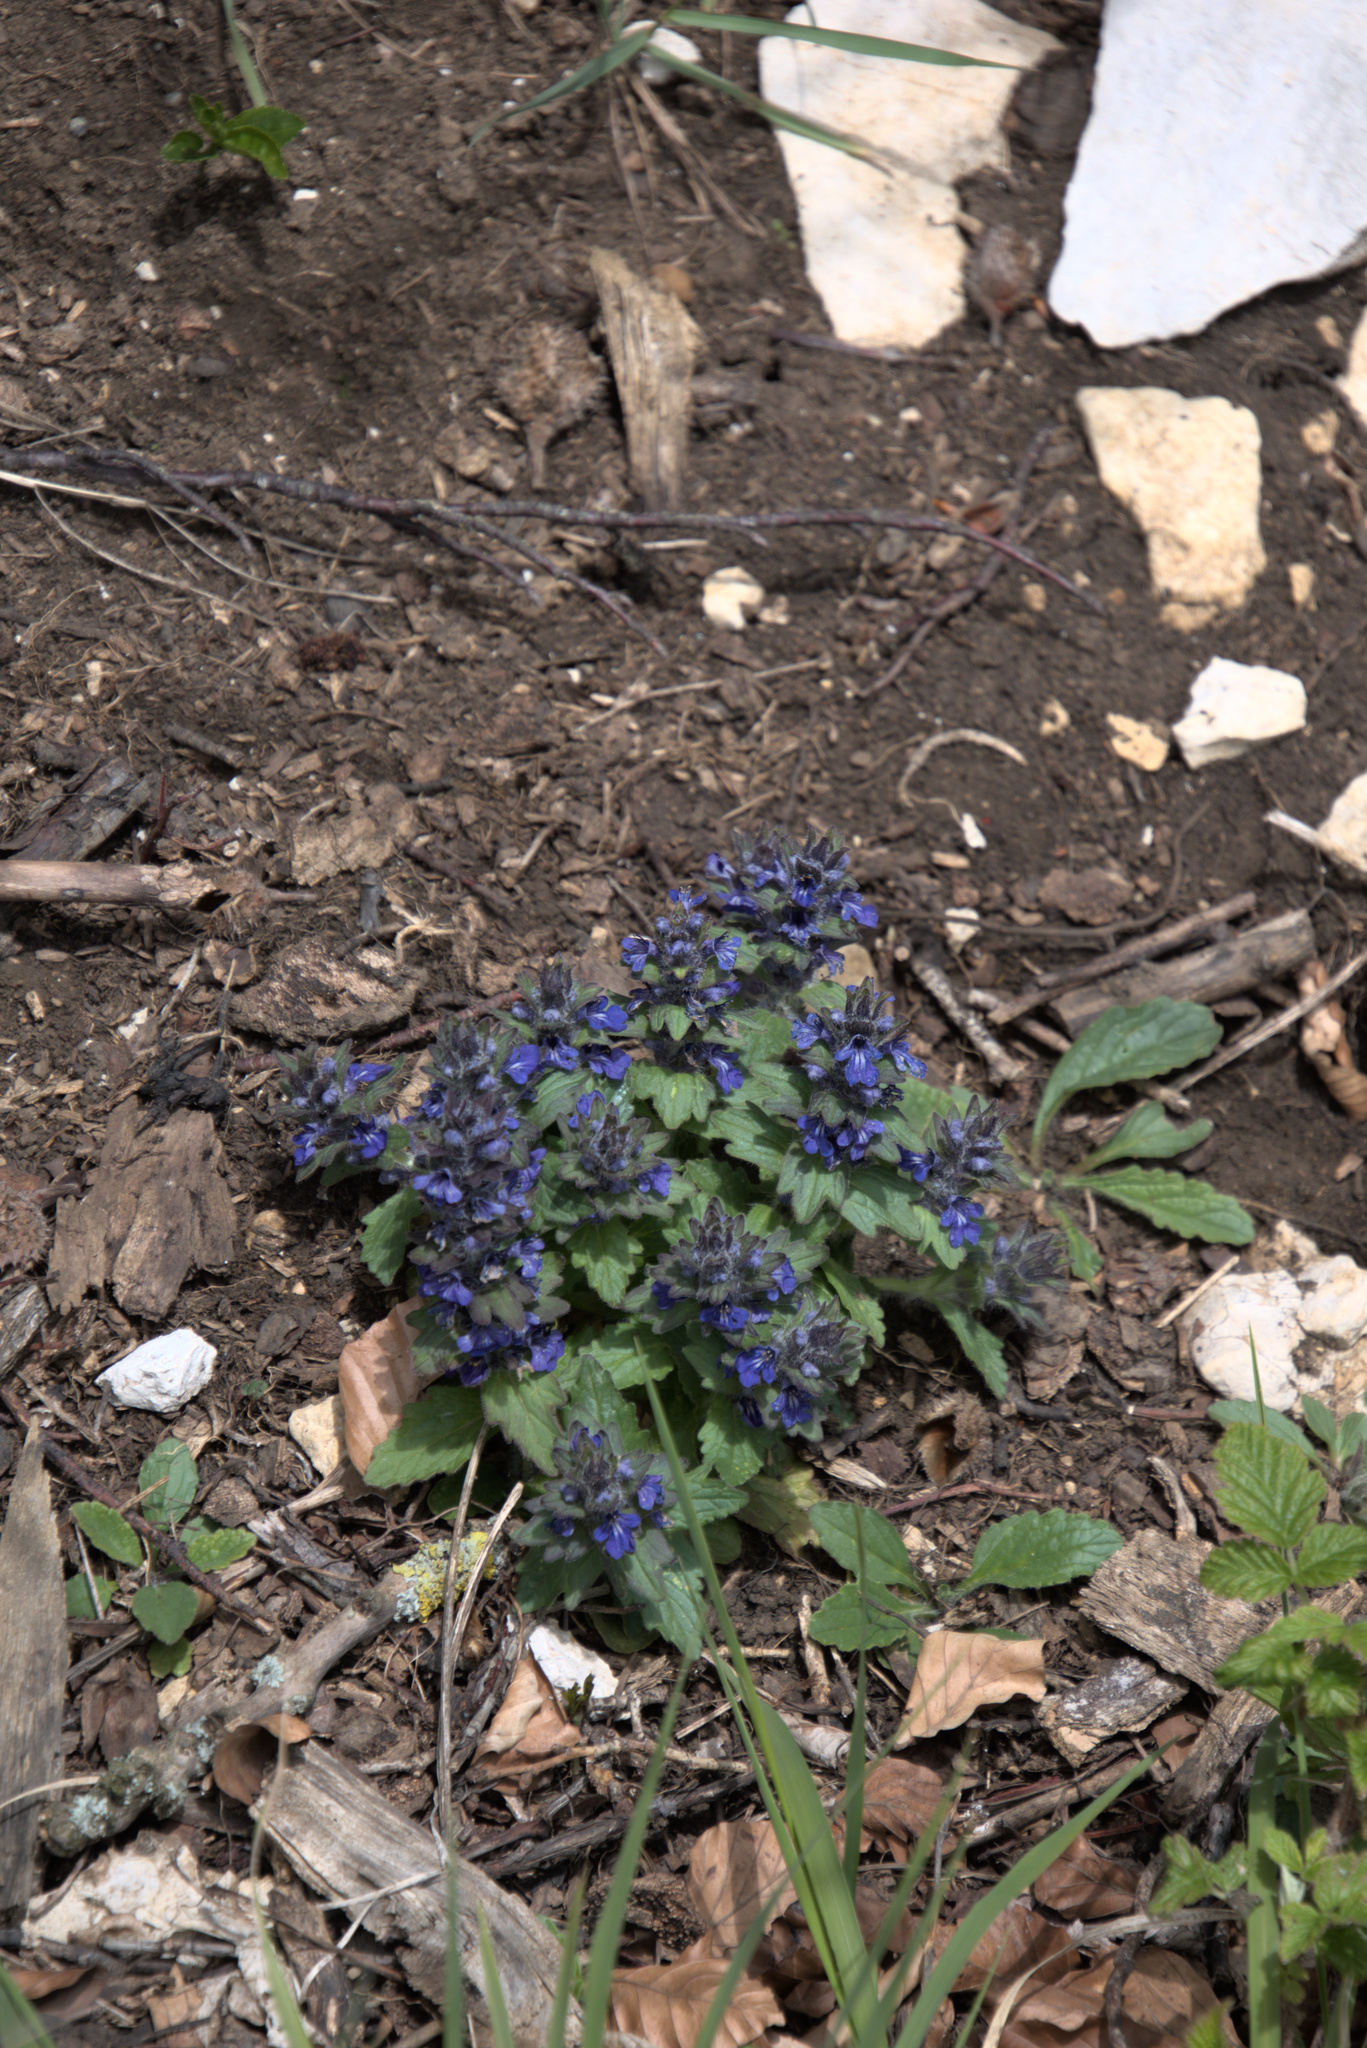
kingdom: Plantae
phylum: Tracheophyta
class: Magnoliopsida
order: Lamiales
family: Lamiaceae
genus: Ajuga
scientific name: Ajuga genevensis
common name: Blue bugle
